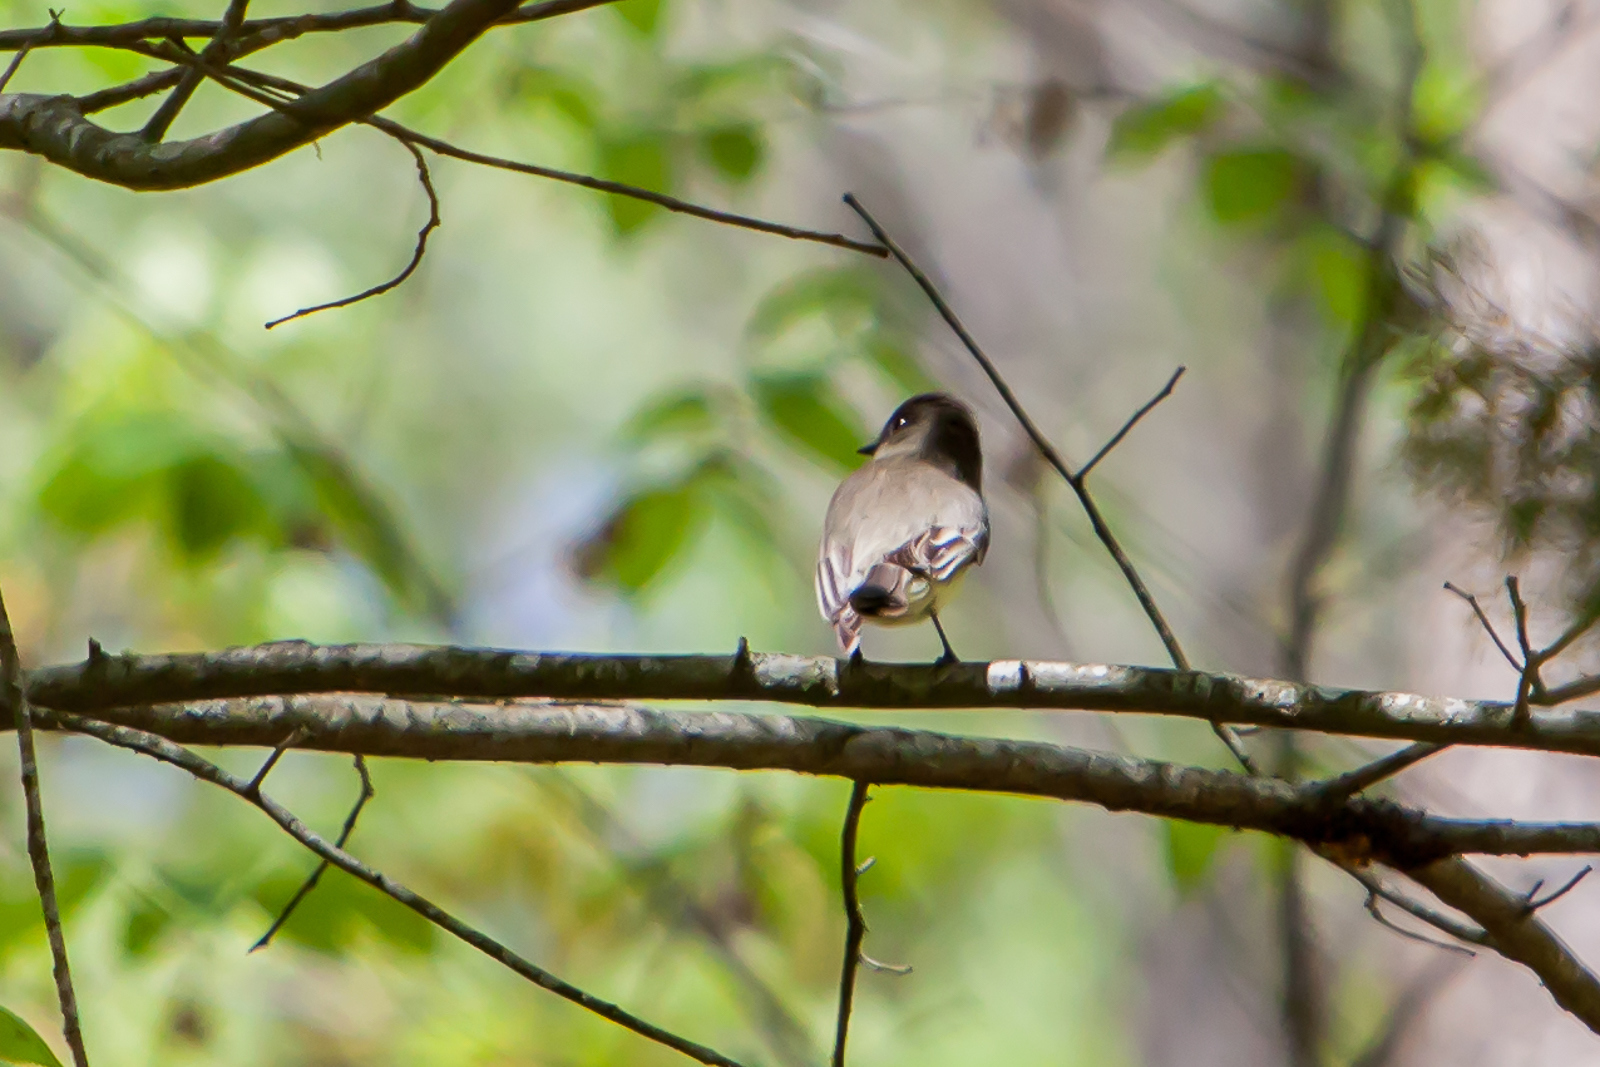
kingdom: Animalia
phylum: Chordata
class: Aves
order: Passeriformes
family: Tyrannidae
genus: Sayornis
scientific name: Sayornis phoebe
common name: Eastern phoebe
